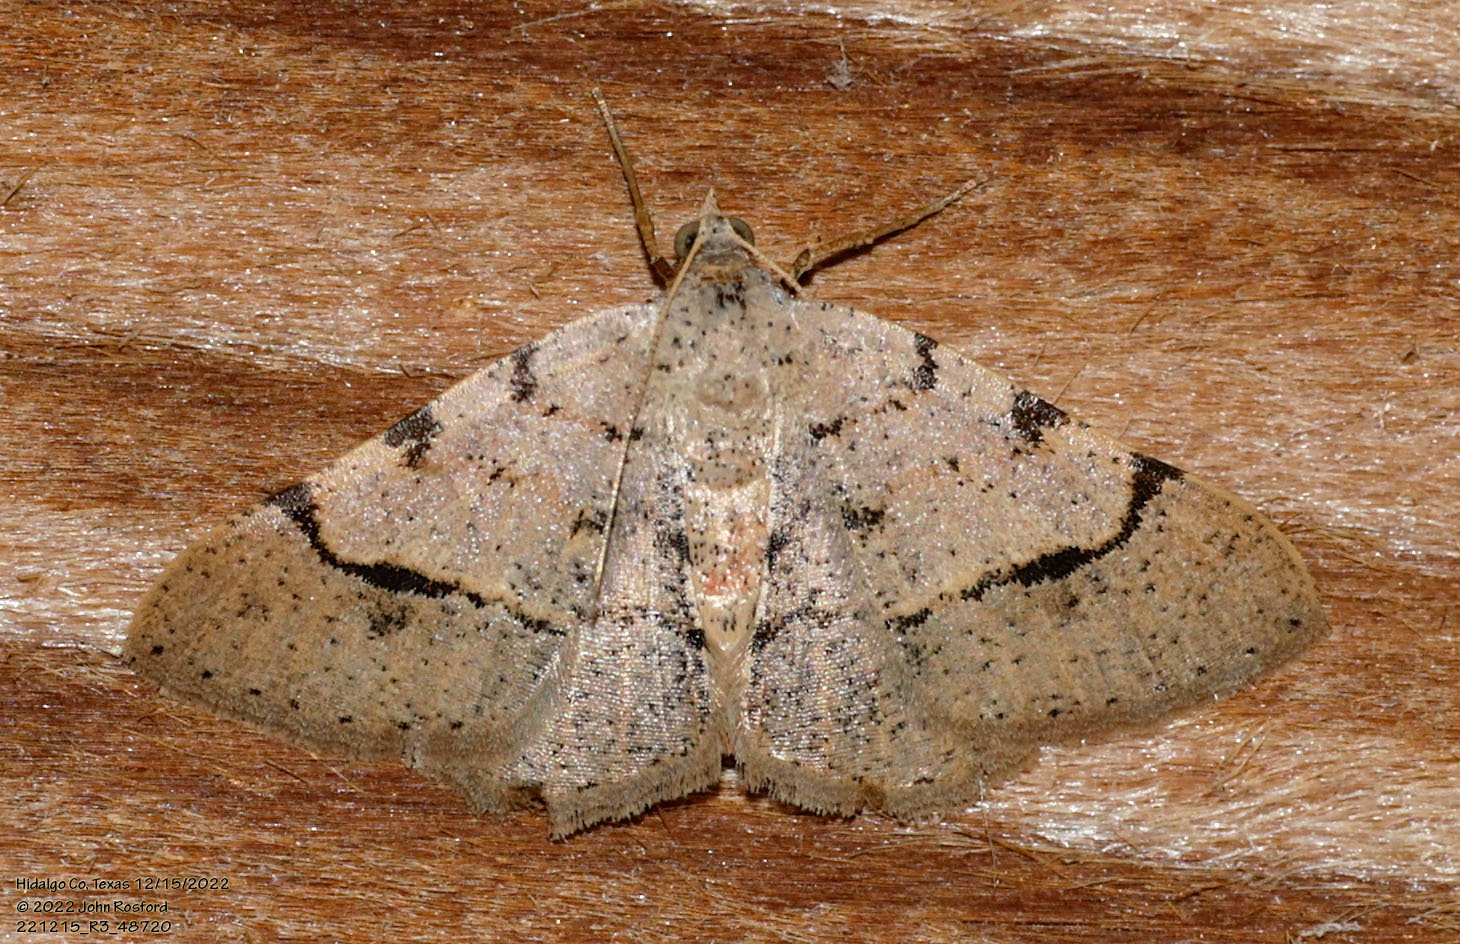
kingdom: Animalia
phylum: Arthropoda
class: Insecta
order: Lepidoptera
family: Geometridae
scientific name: Geometridae
